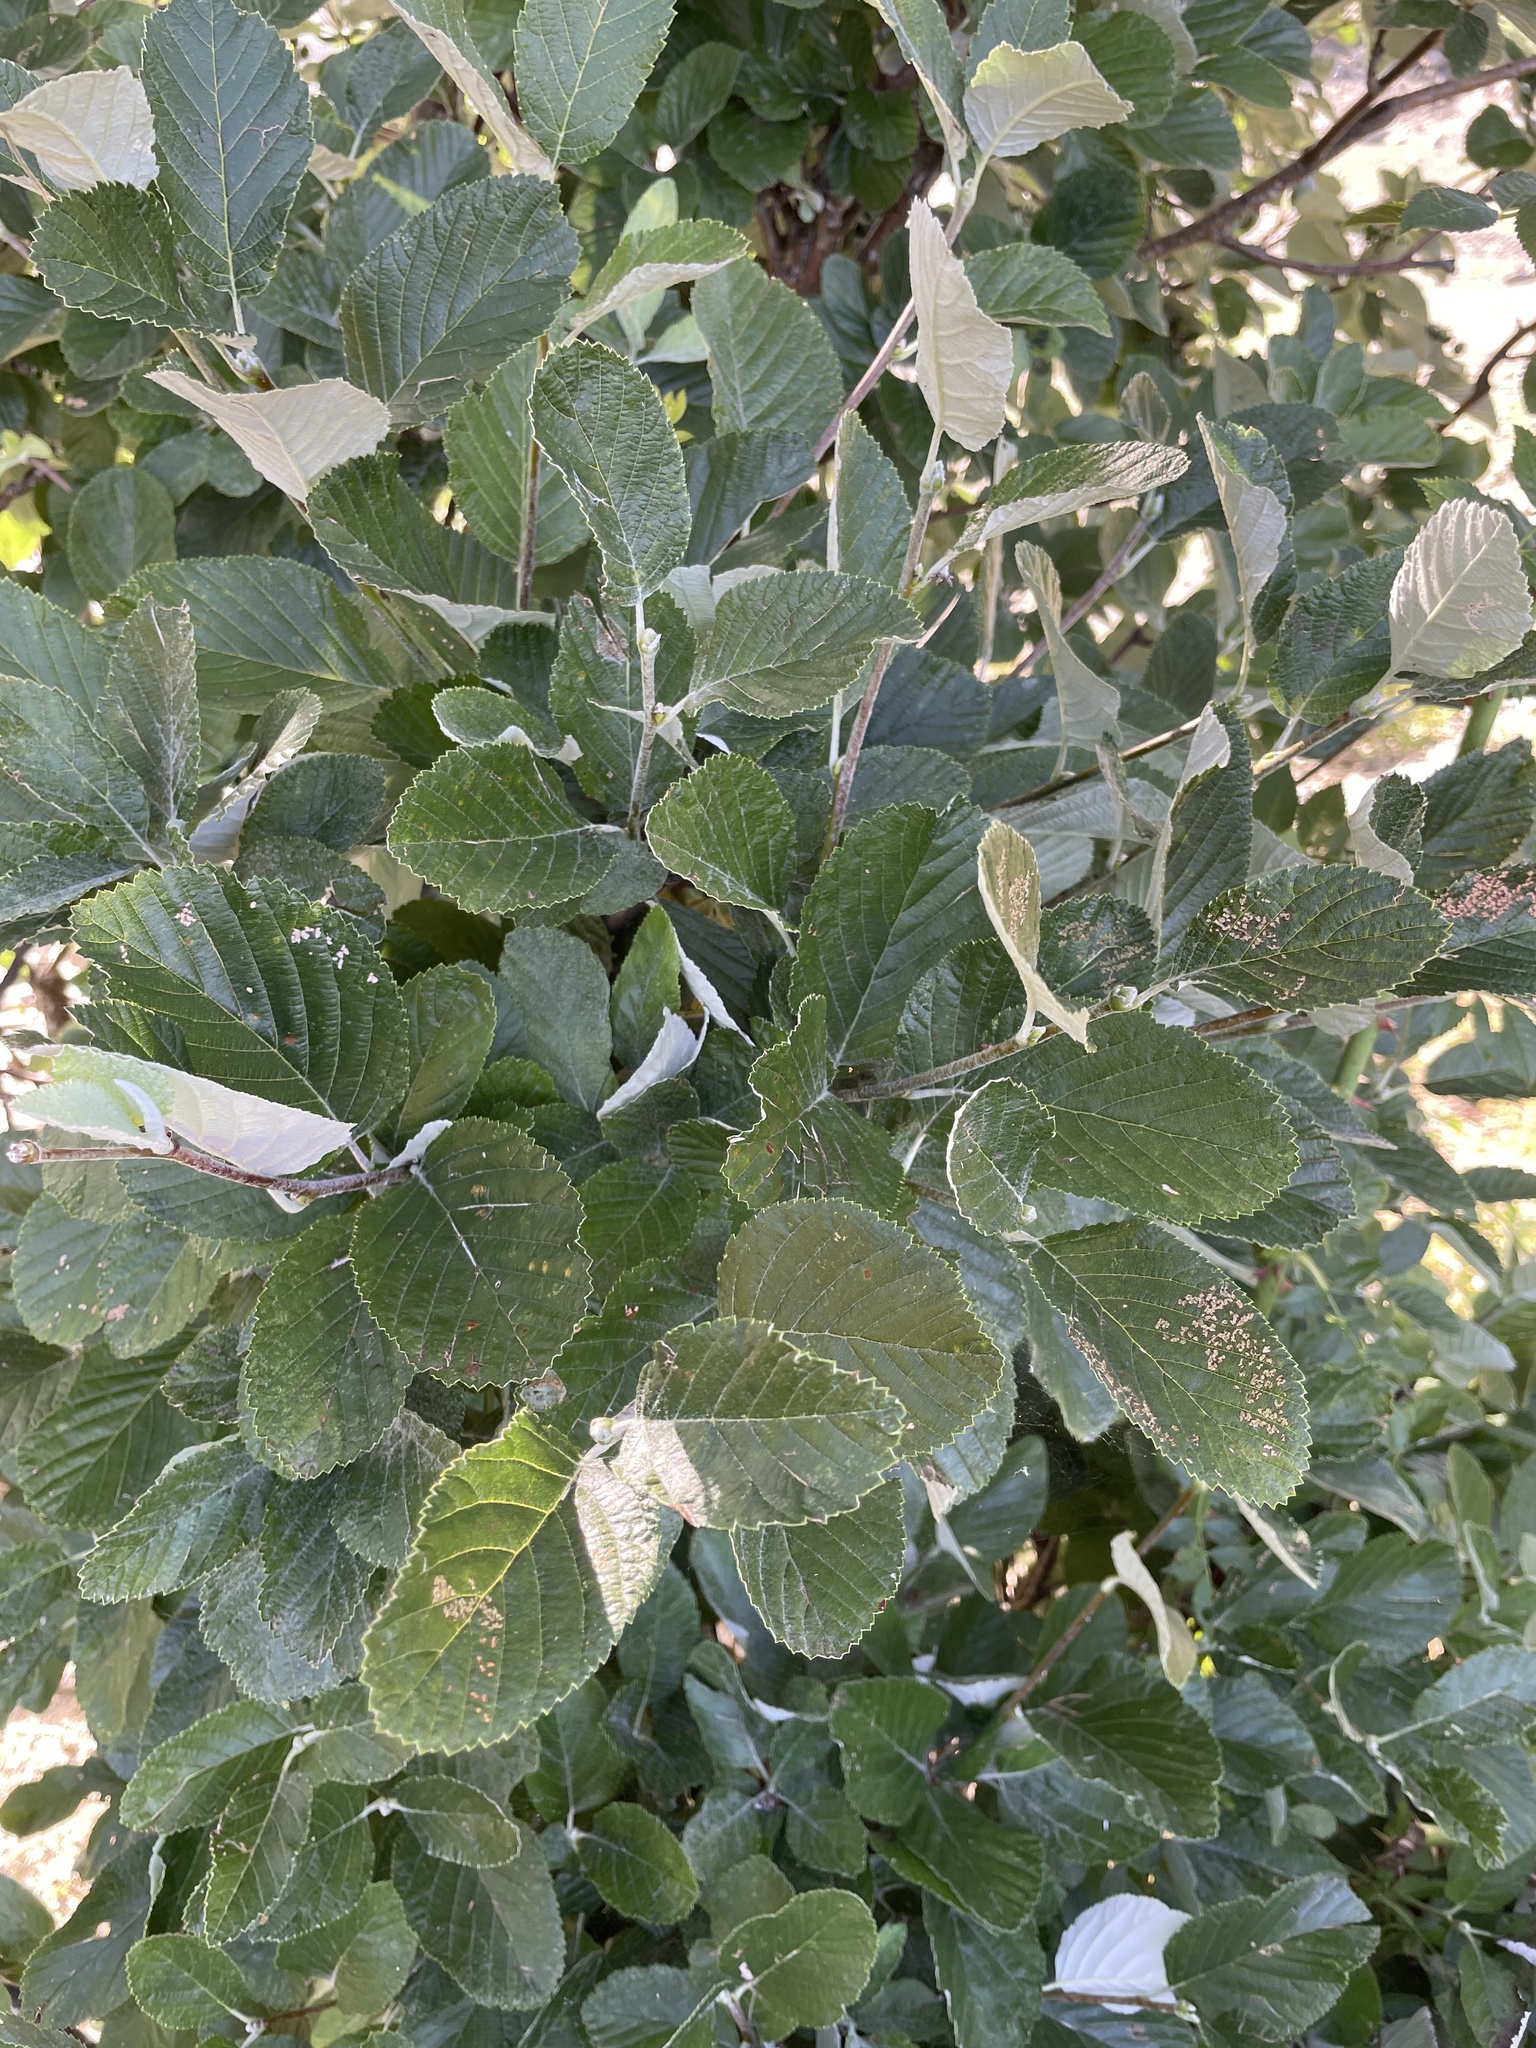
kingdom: Plantae
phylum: Tracheophyta
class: Magnoliopsida
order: Rosales
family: Rosaceae
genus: Aria
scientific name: Aria edulis
